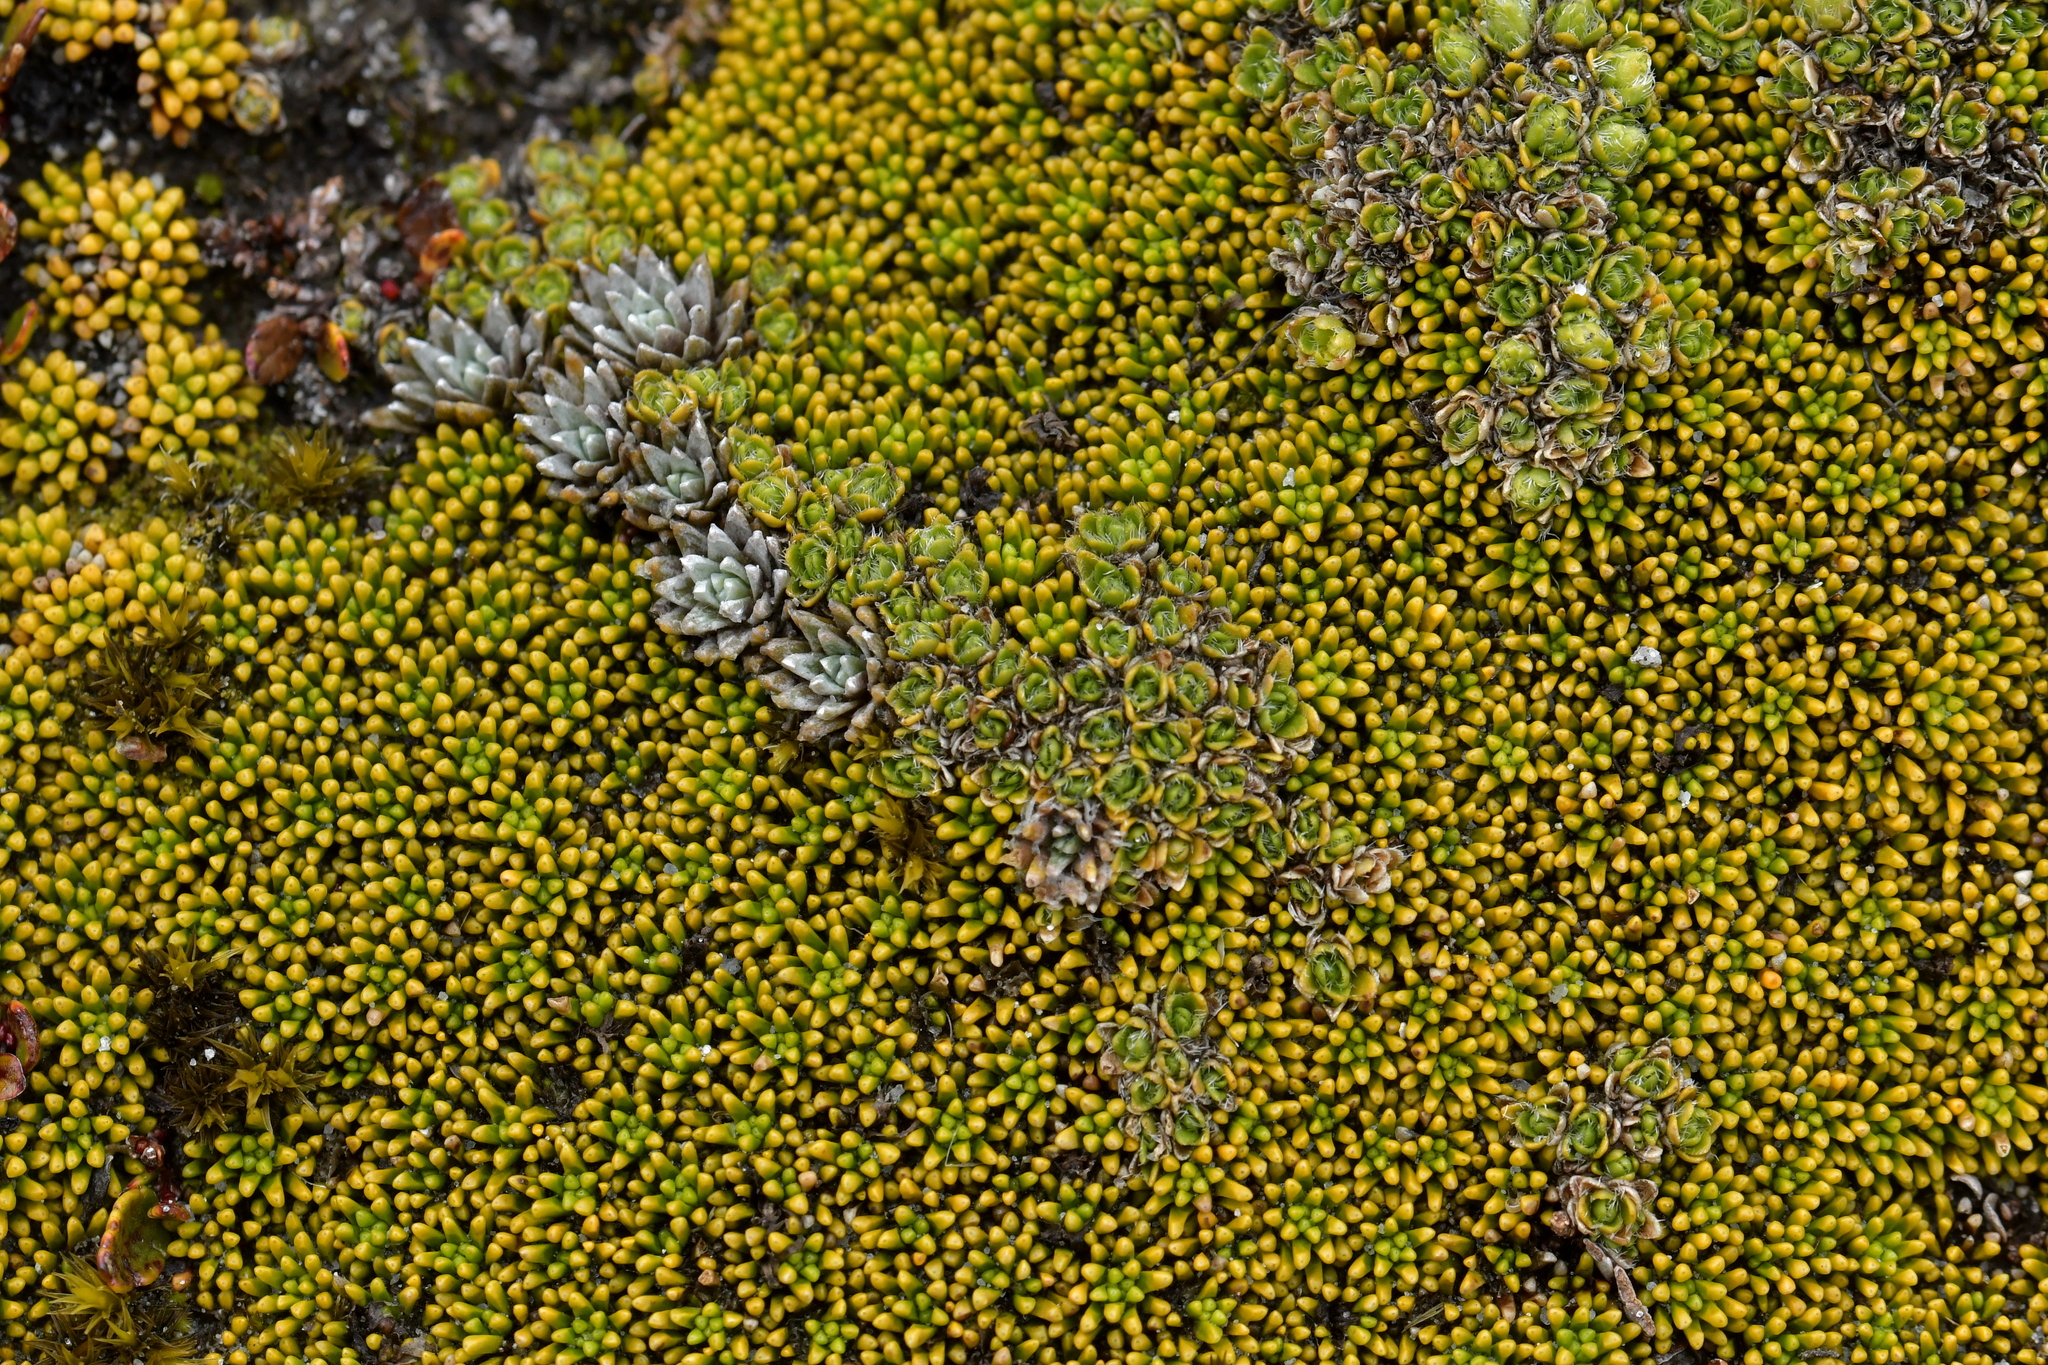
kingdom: Plantae
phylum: Tracheophyta
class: Magnoliopsida
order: Lamiales
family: Plantaginaceae
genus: Veronica
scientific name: Veronica pulvinaris
